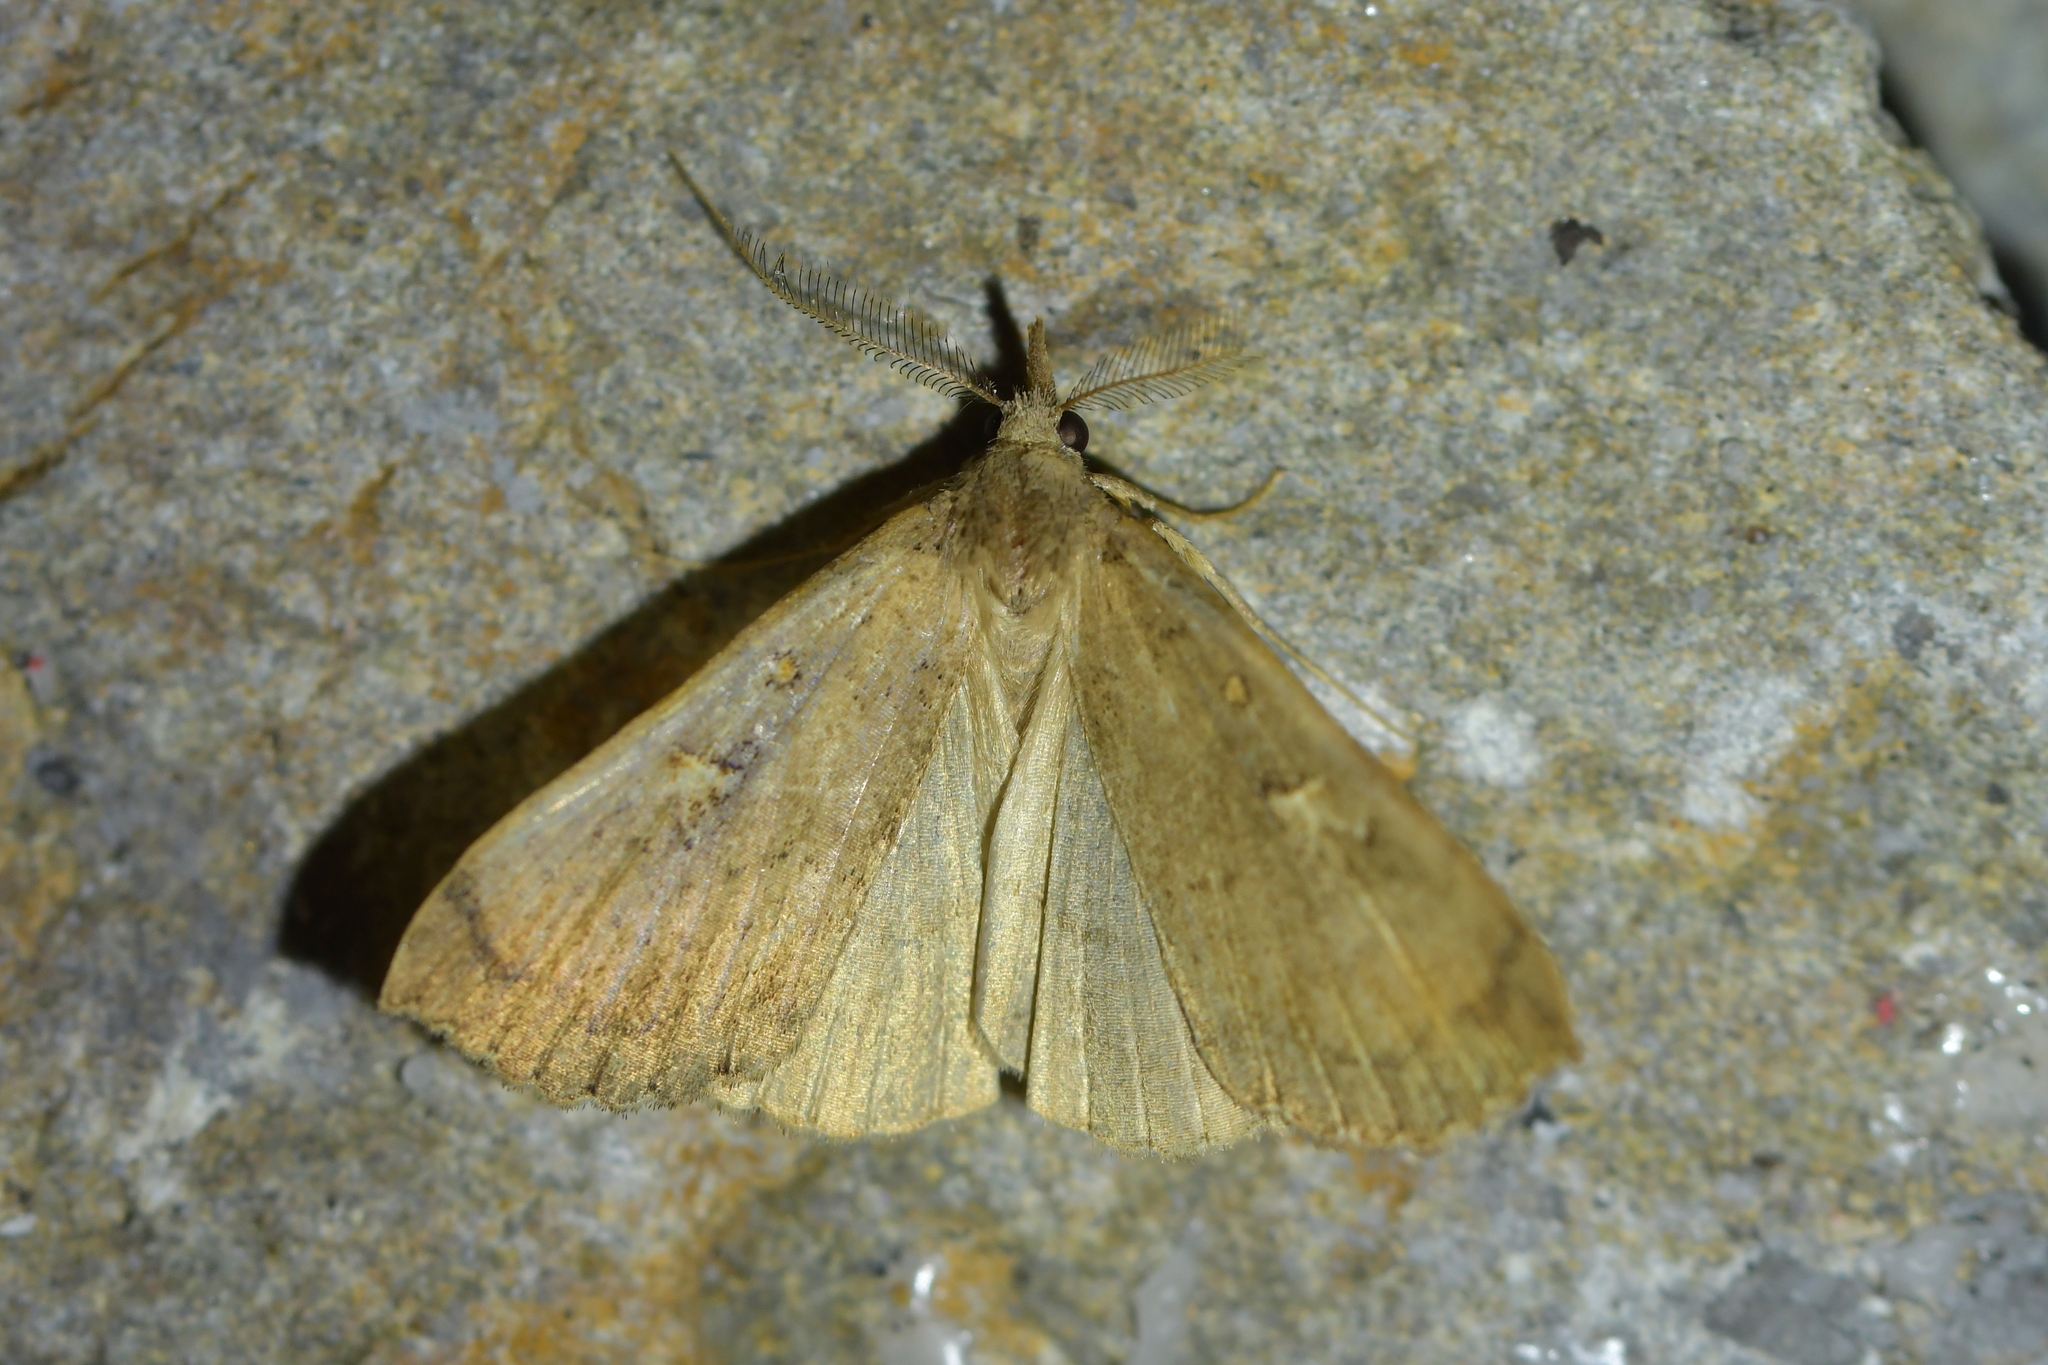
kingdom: Animalia
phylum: Arthropoda
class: Insecta
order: Lepidoptera
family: Erebidae
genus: Rhapsa
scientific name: Rhapsa scotosialis
